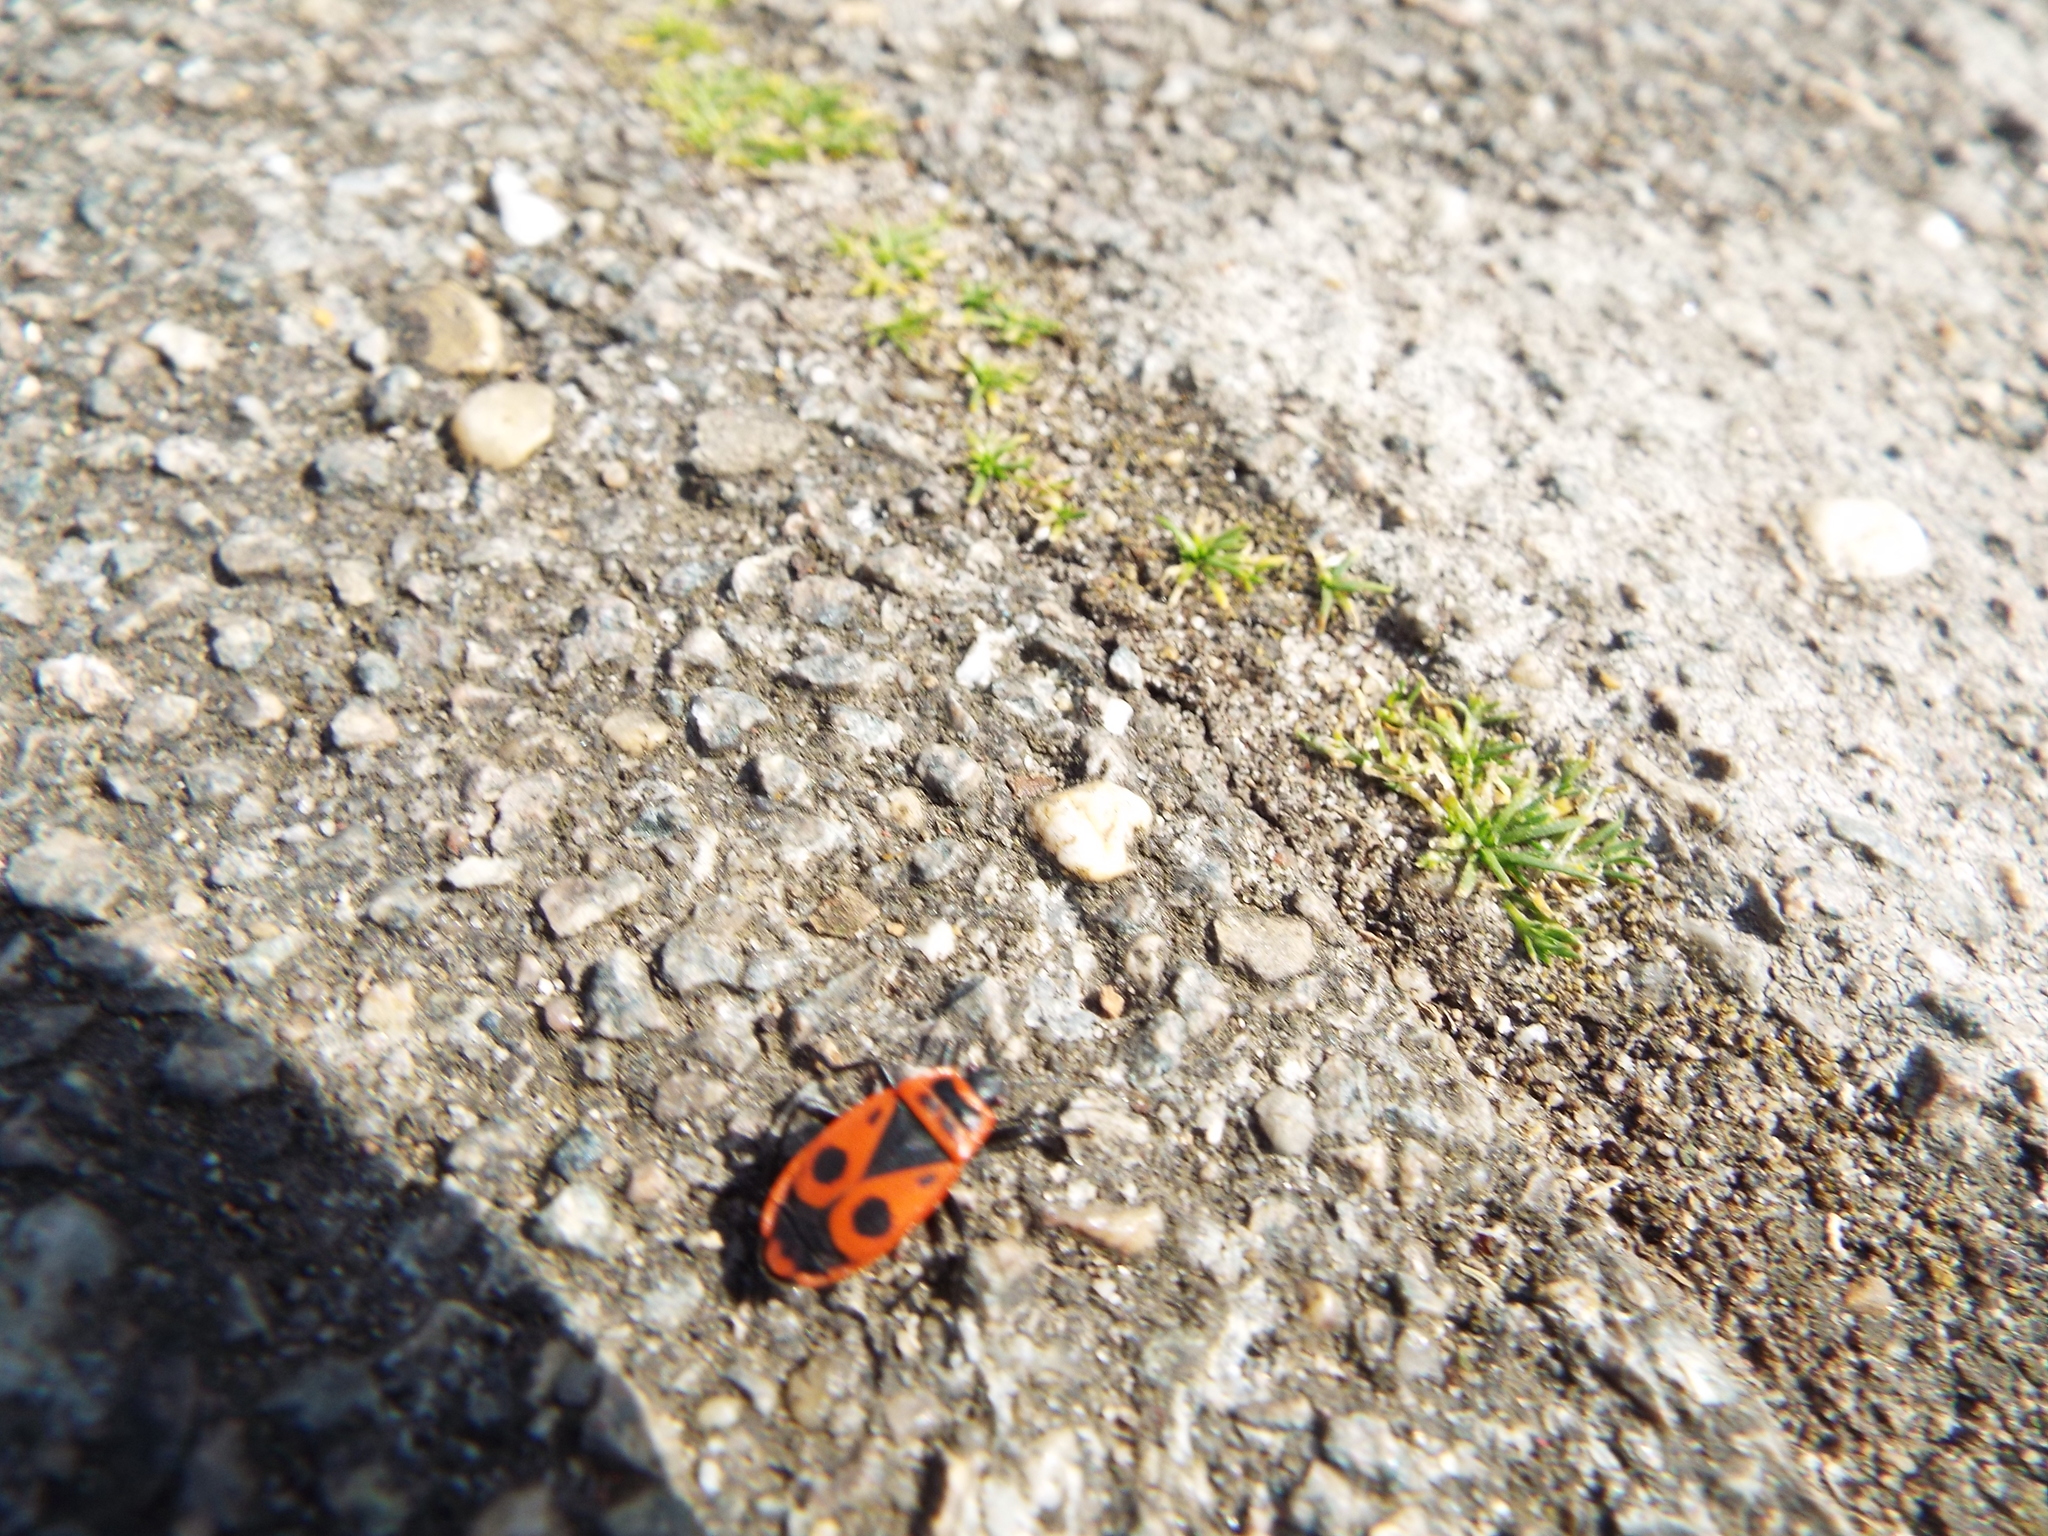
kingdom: Animalia
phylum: Arthropoda
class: Insecta
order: Hemiptera
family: Pyrrhocoridae
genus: Pyrrhocoris
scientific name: Pyrrhocoris apterus
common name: Firebug
